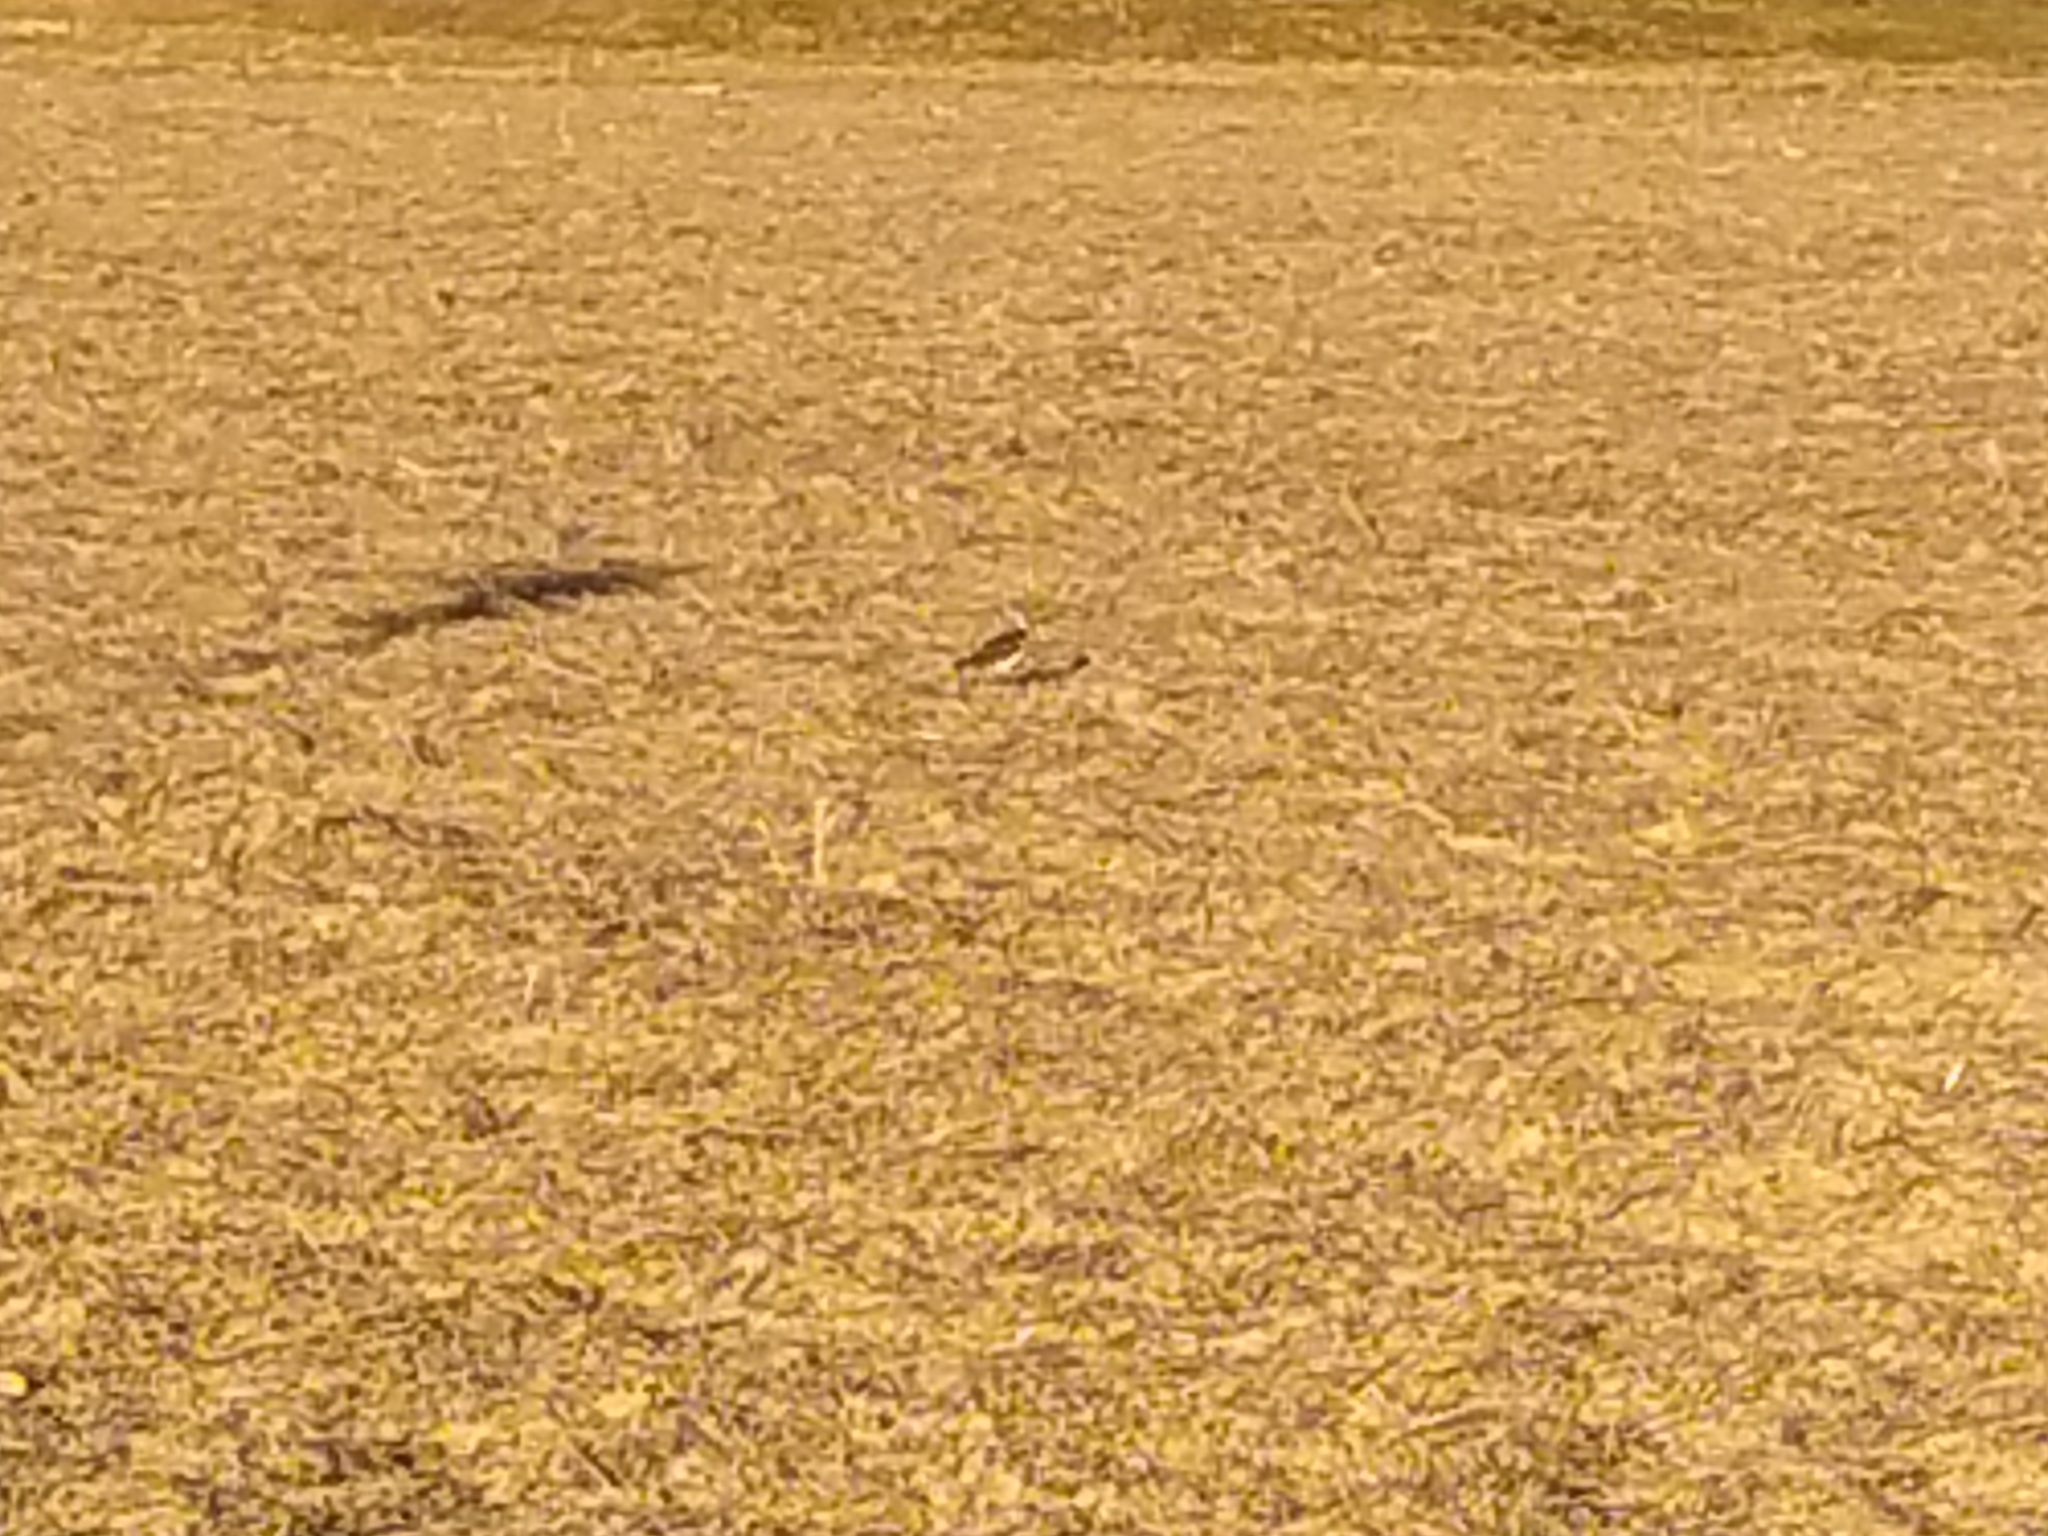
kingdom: Animalia
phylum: Chordata
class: Aves
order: Charadriiformes
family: Charadriidae
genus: Vanellus
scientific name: Vanellus vanellus
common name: Northern lapwing
